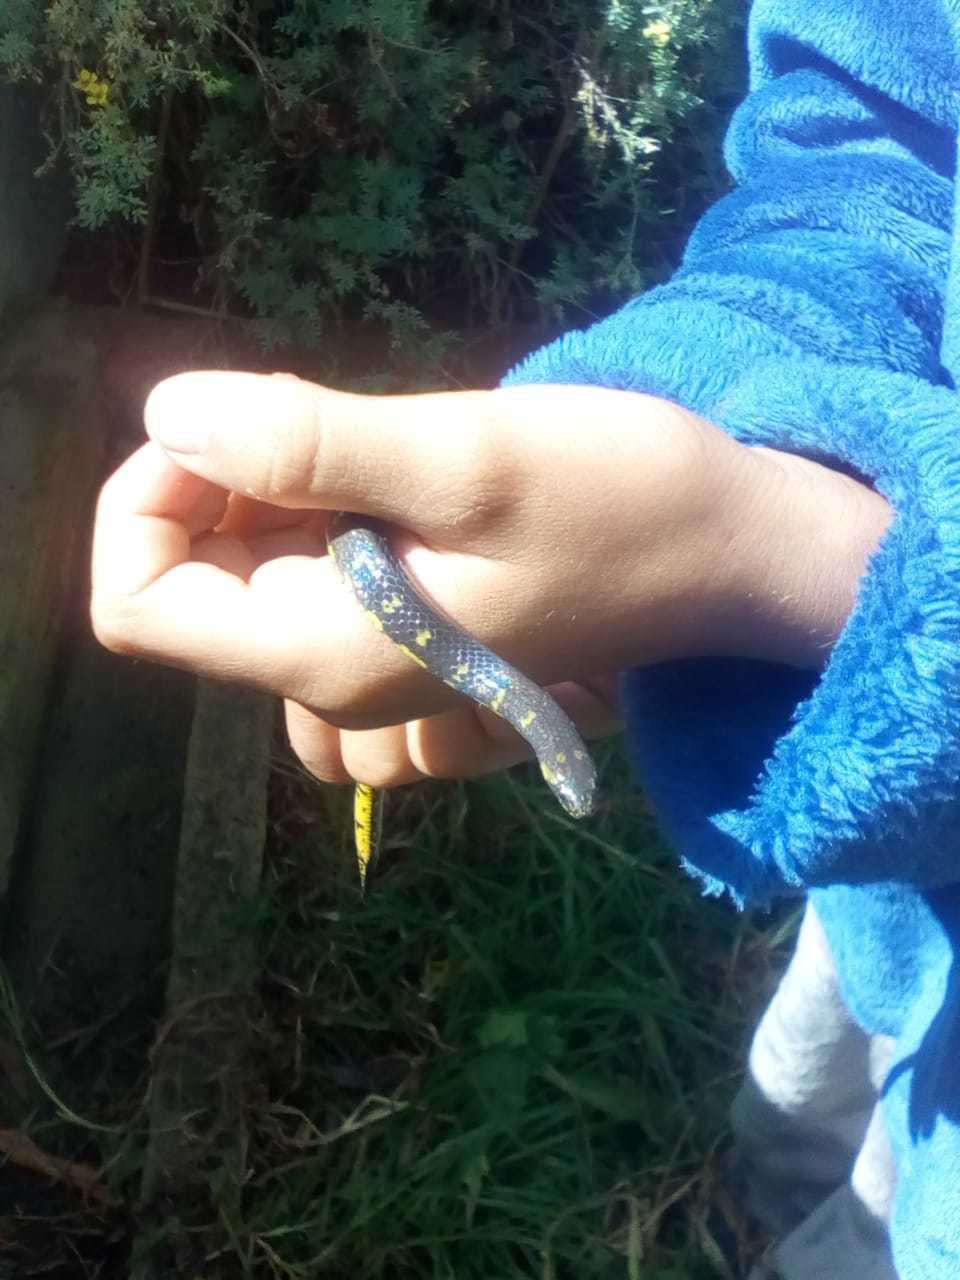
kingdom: Animalia
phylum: Chordata
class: Squamata
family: Colubridae
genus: Atractus
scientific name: Atractus crassicaudatus
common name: Thickhead ground snake
